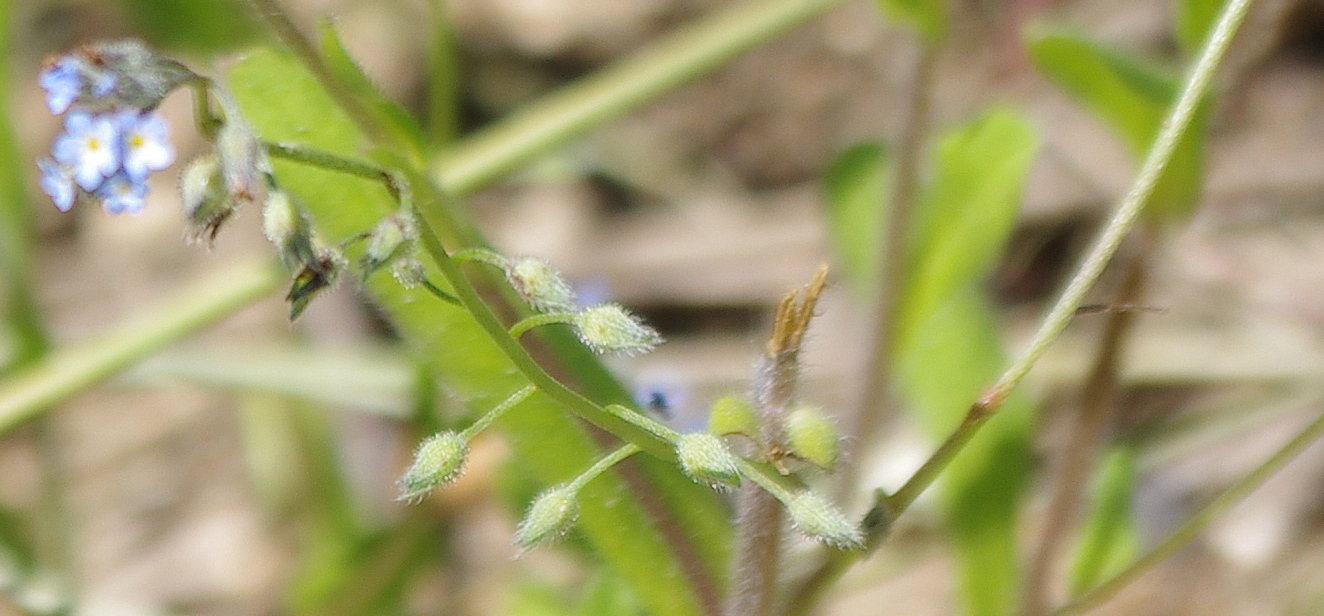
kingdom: Plantae
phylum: Tracheophyta
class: Magnoliopsida
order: Boraginales
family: Boraginaceae
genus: Myosotis
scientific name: Myosotis arvensis
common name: Field forget-me-not
